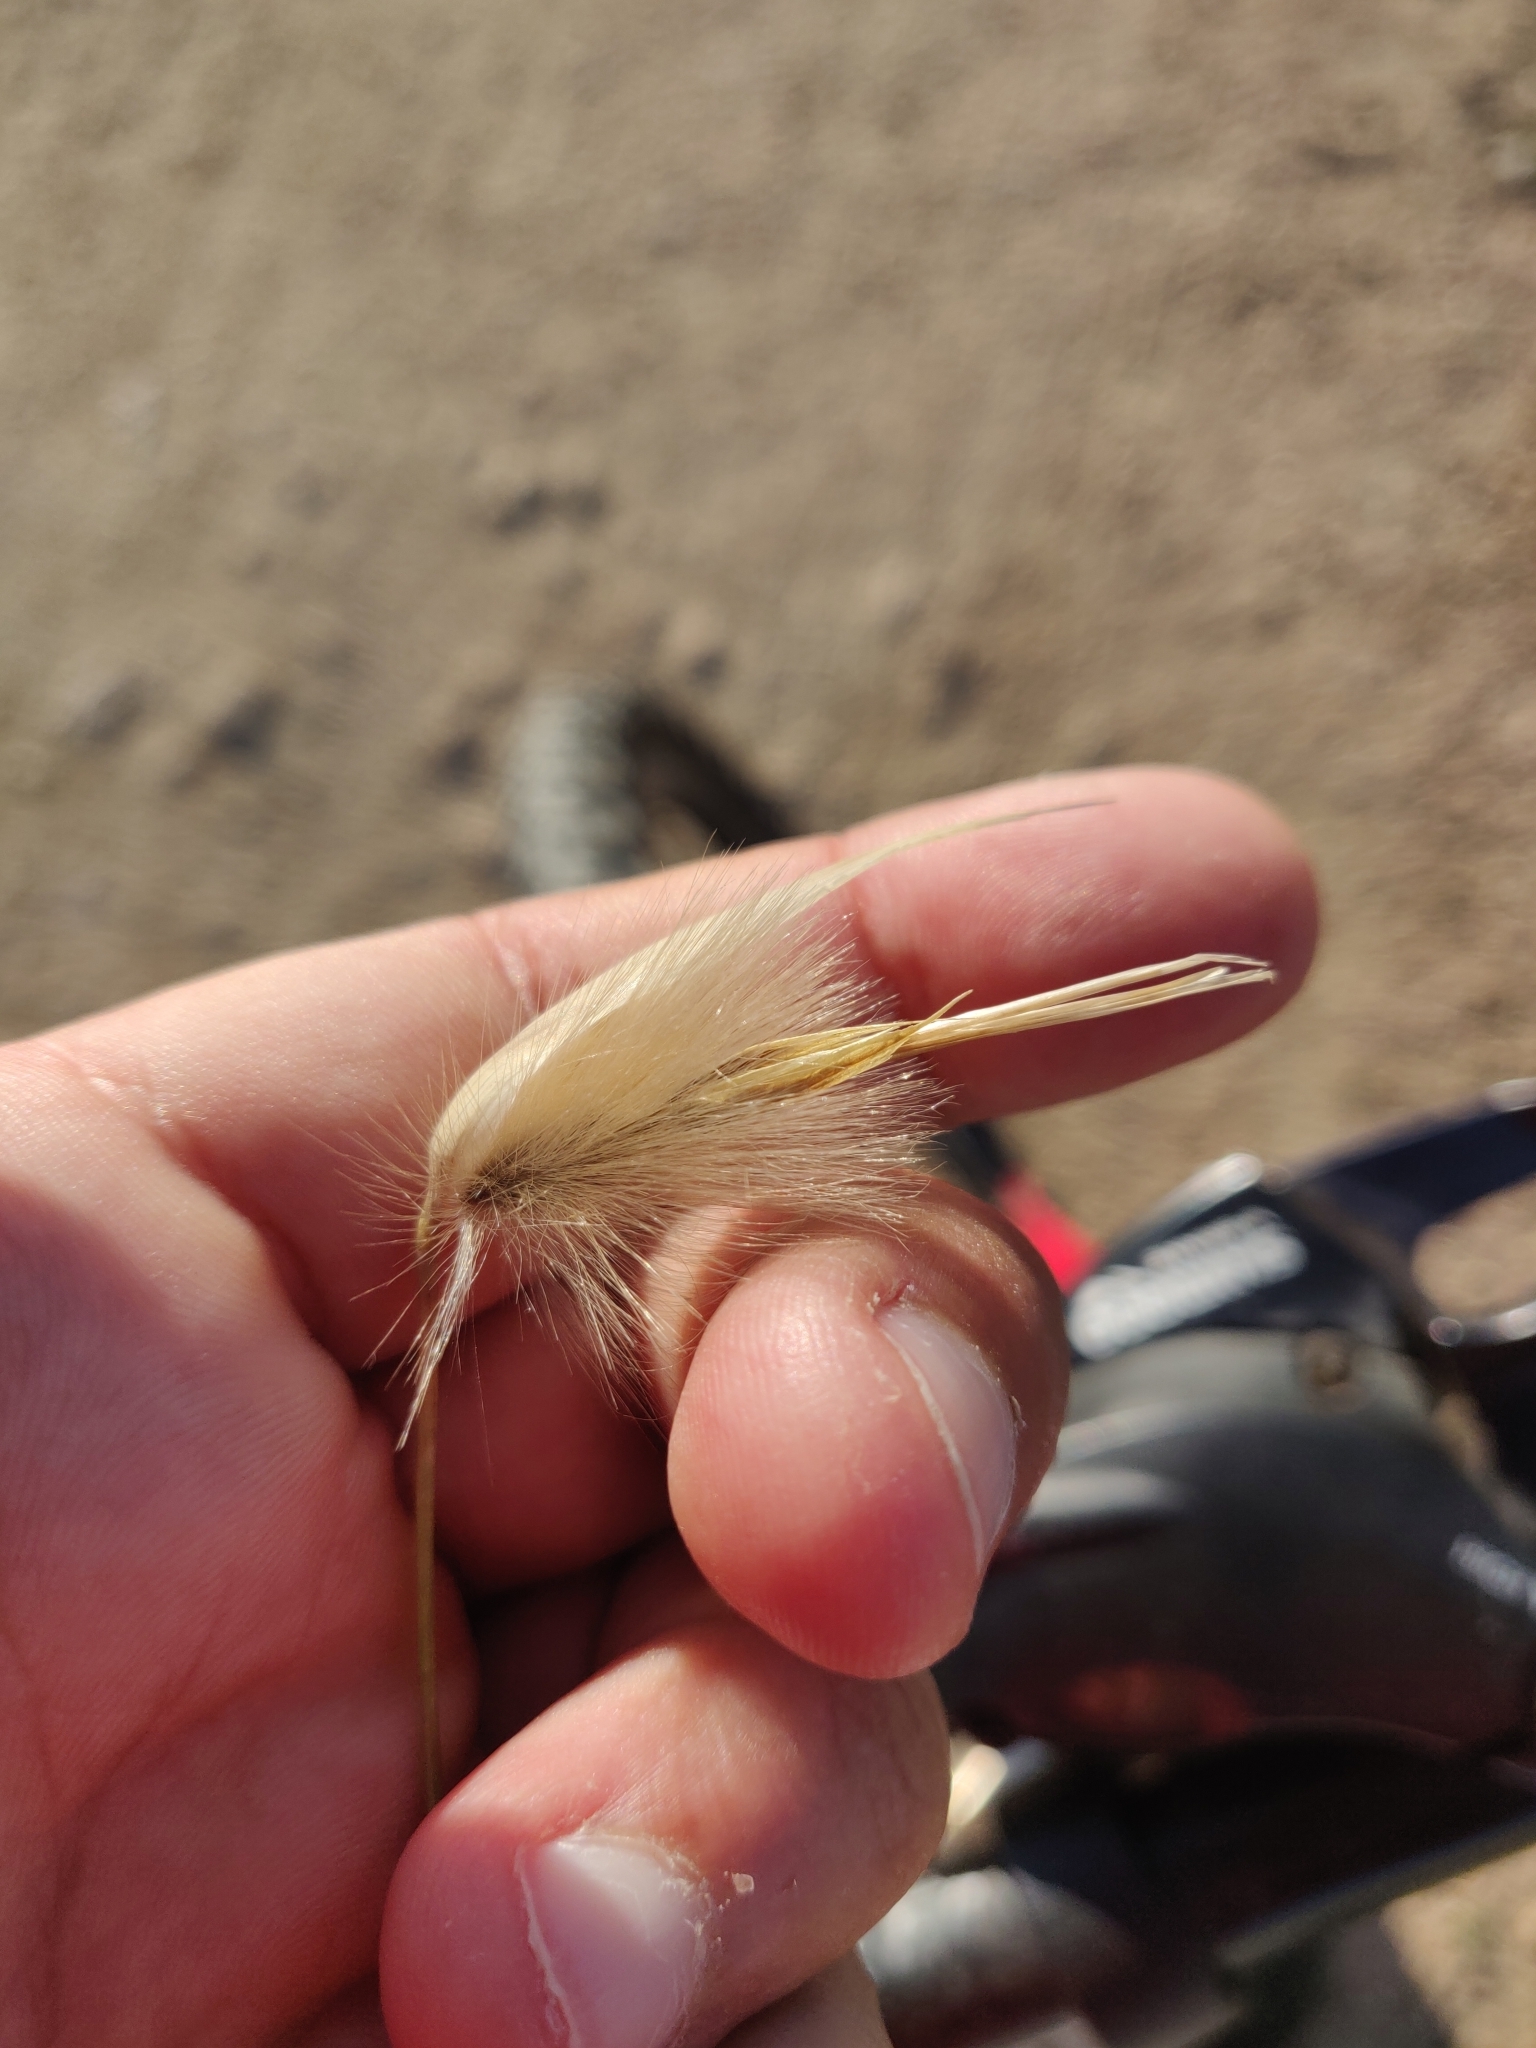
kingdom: Plantae
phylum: Tracheophyta
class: Liliopsida
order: Poales
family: Poaceae
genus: Lygeum
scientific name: Lygeum spartum
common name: Albardine
